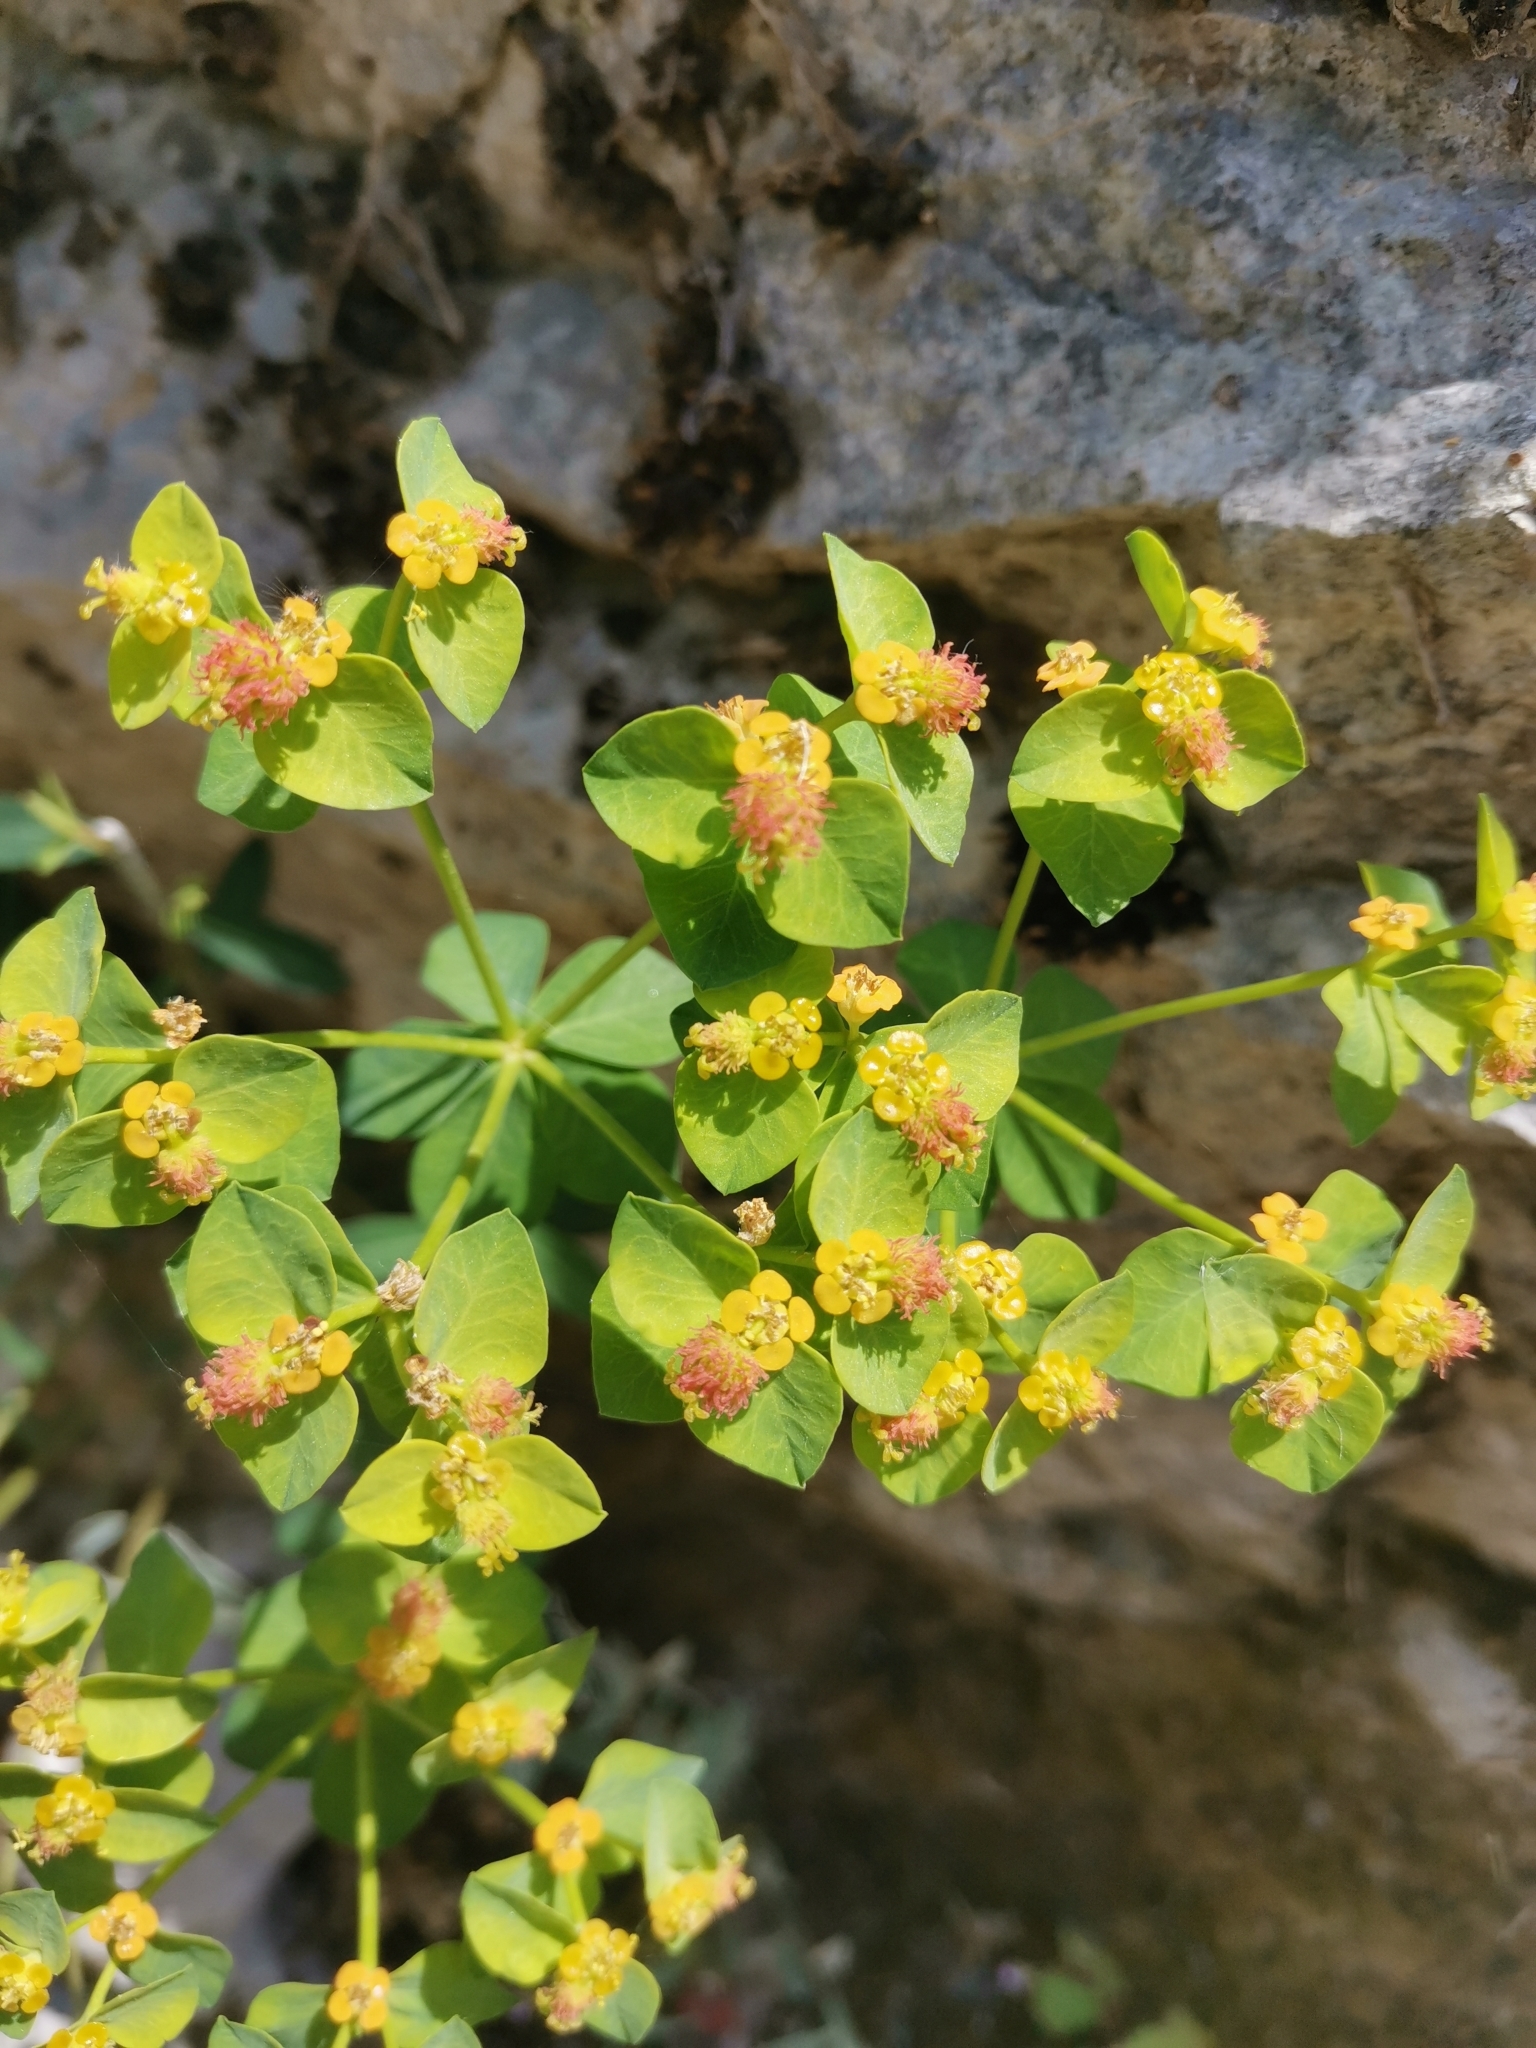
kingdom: Plantae
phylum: Tracheophyta
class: Magnoliopsida
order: Malpighiales
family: Euphorbiaceae
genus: Euphorbia
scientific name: Euphorbia fragifera
